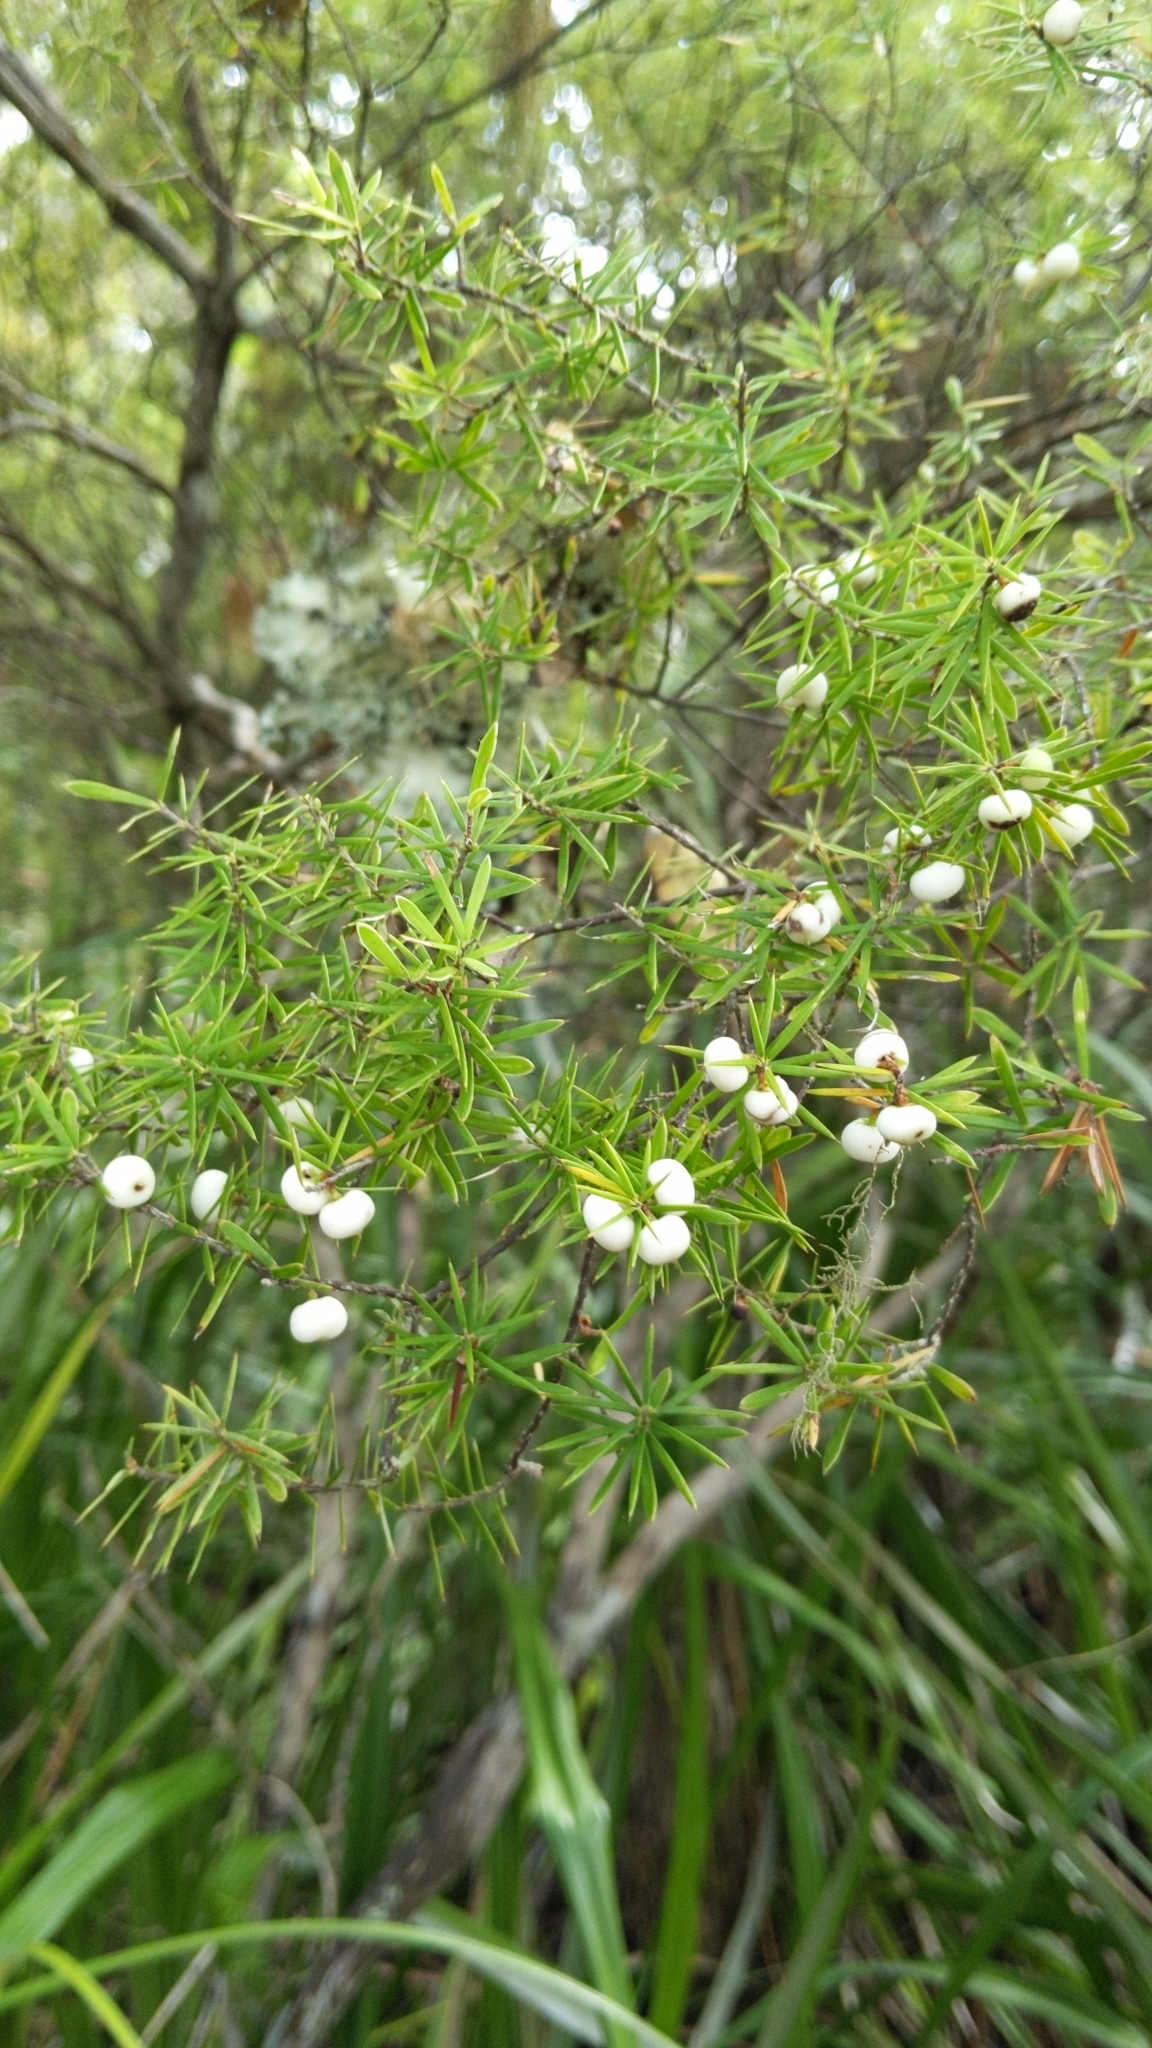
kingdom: Plantae
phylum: Tracheophyta
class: Magnoliopsida
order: Ericales
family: Ericaceae
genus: Leptecophylla
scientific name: Leptecophylla juniperina
